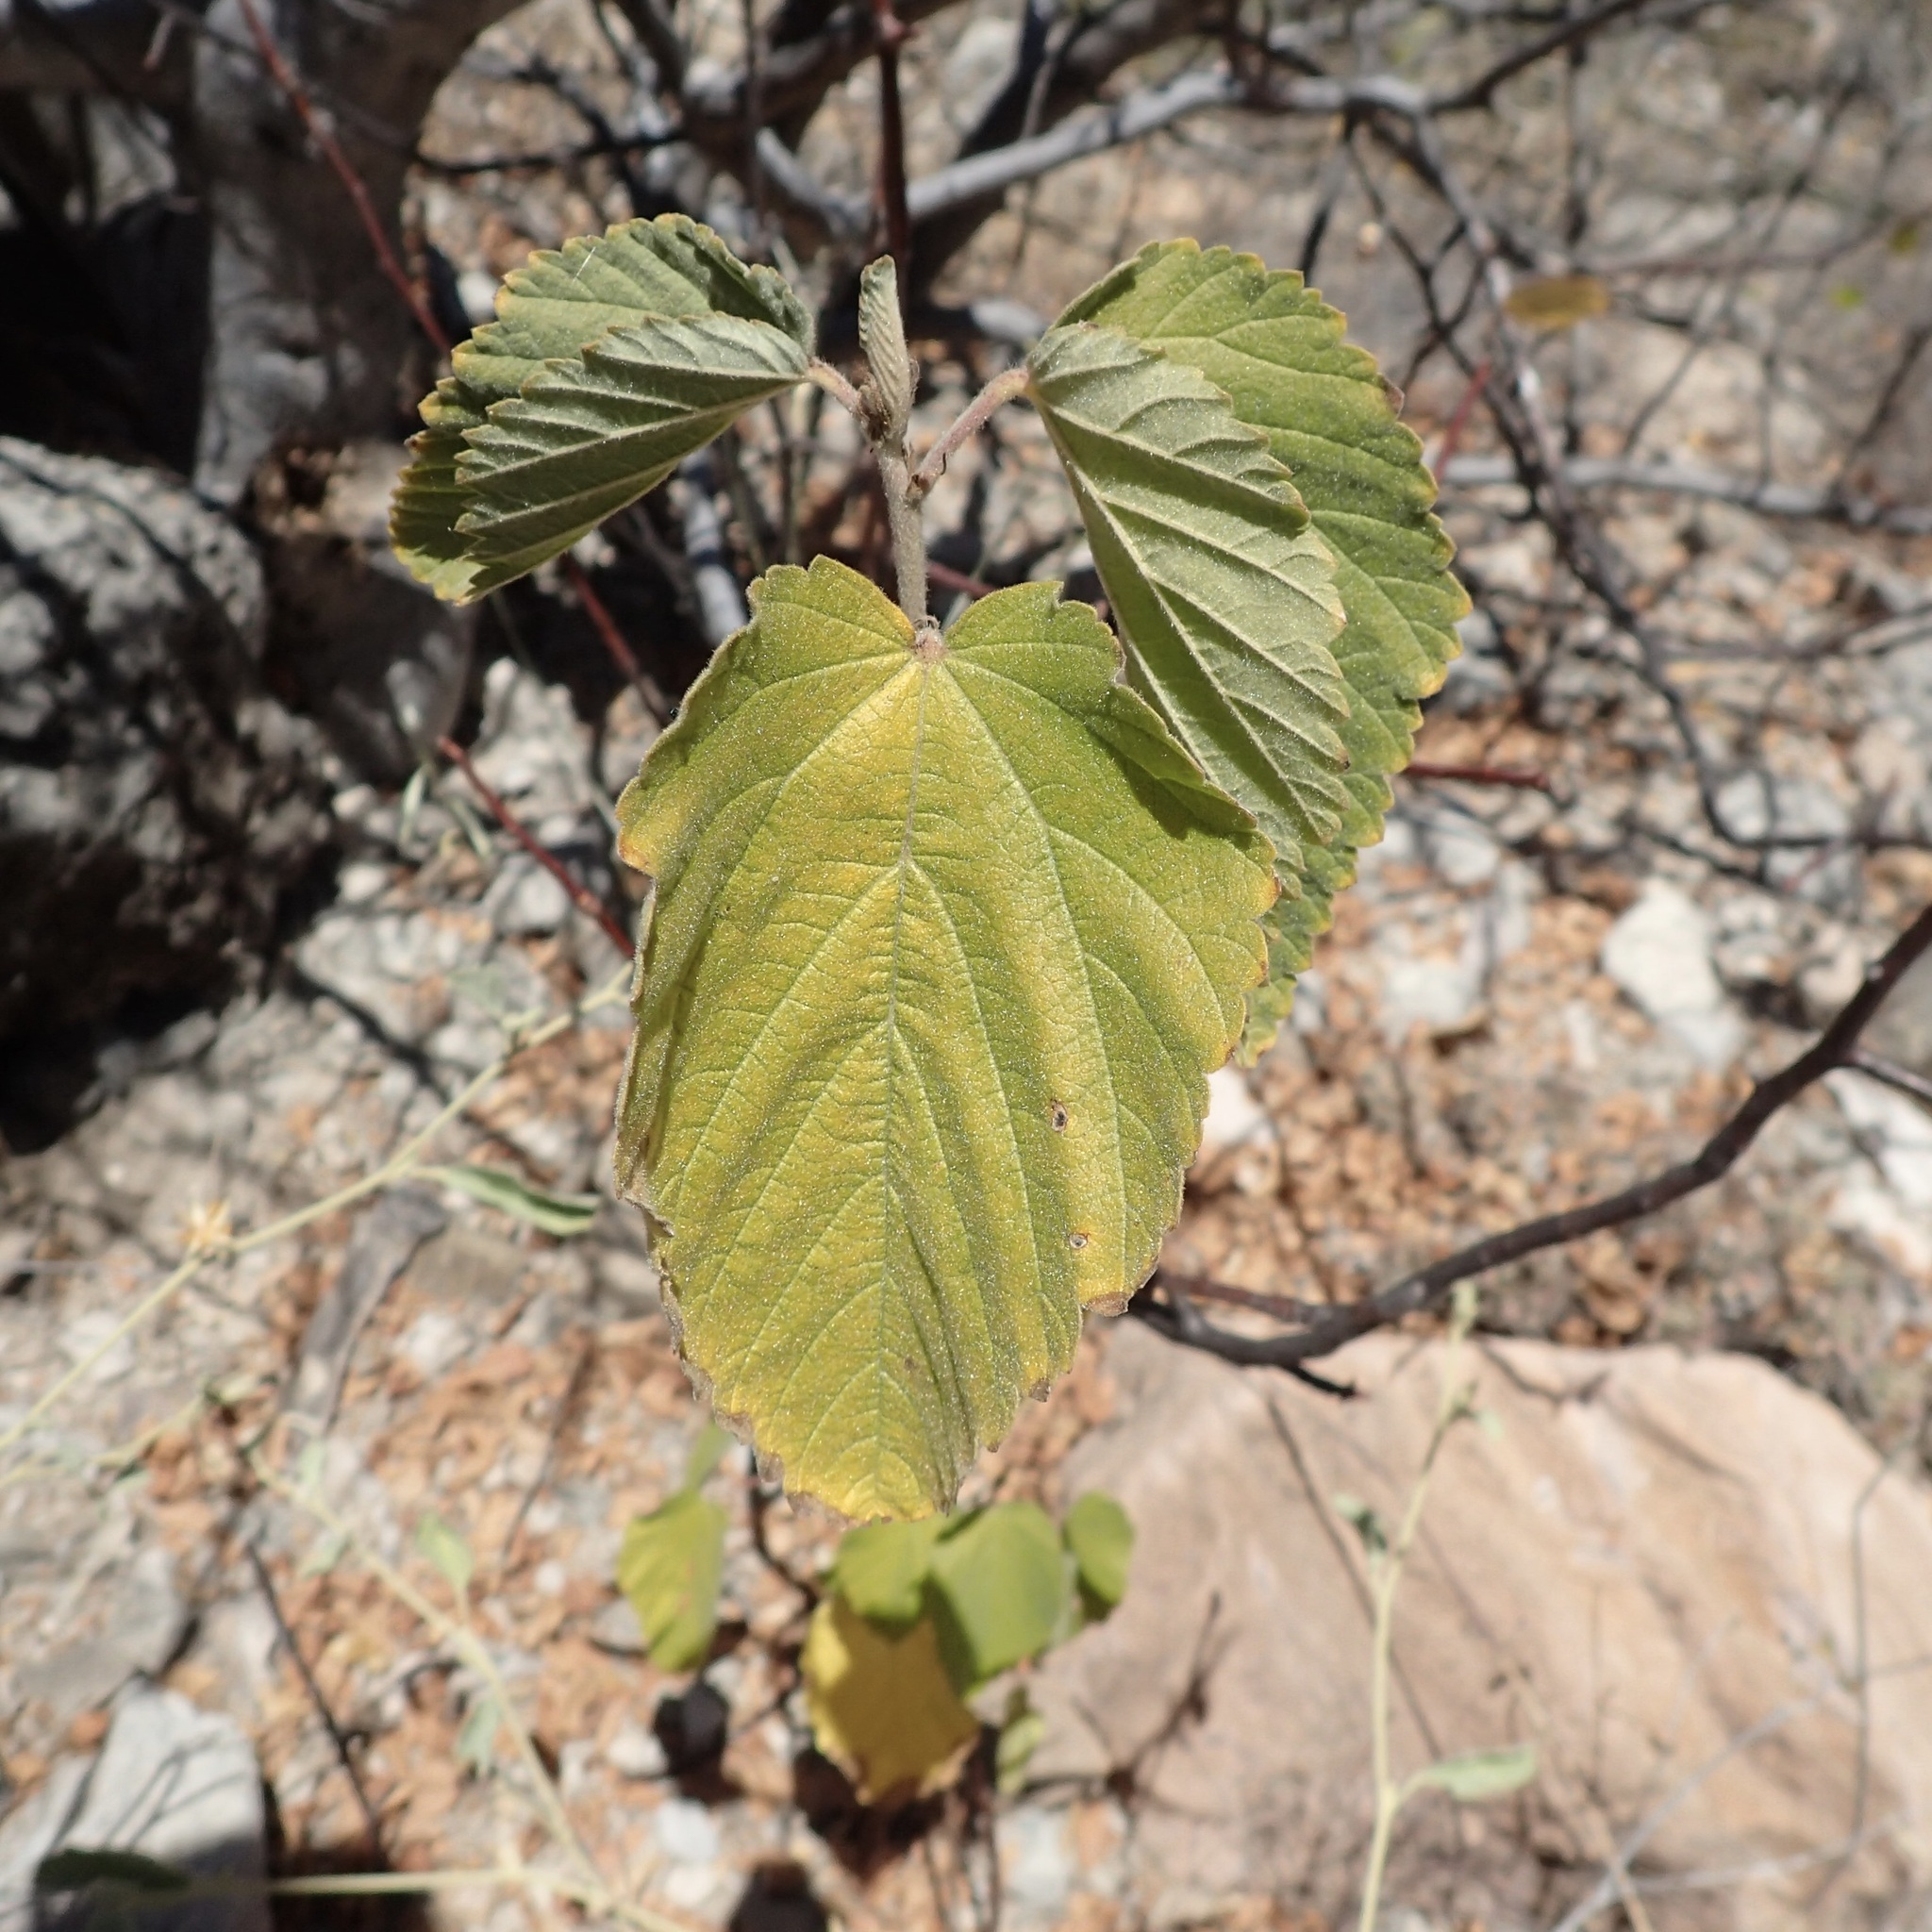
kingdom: Plantae
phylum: Tracheophyta
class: Magnoliopsida
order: Malvales
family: Malvaceae
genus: Melochia
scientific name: Melochia tomentosa
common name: Black torch
